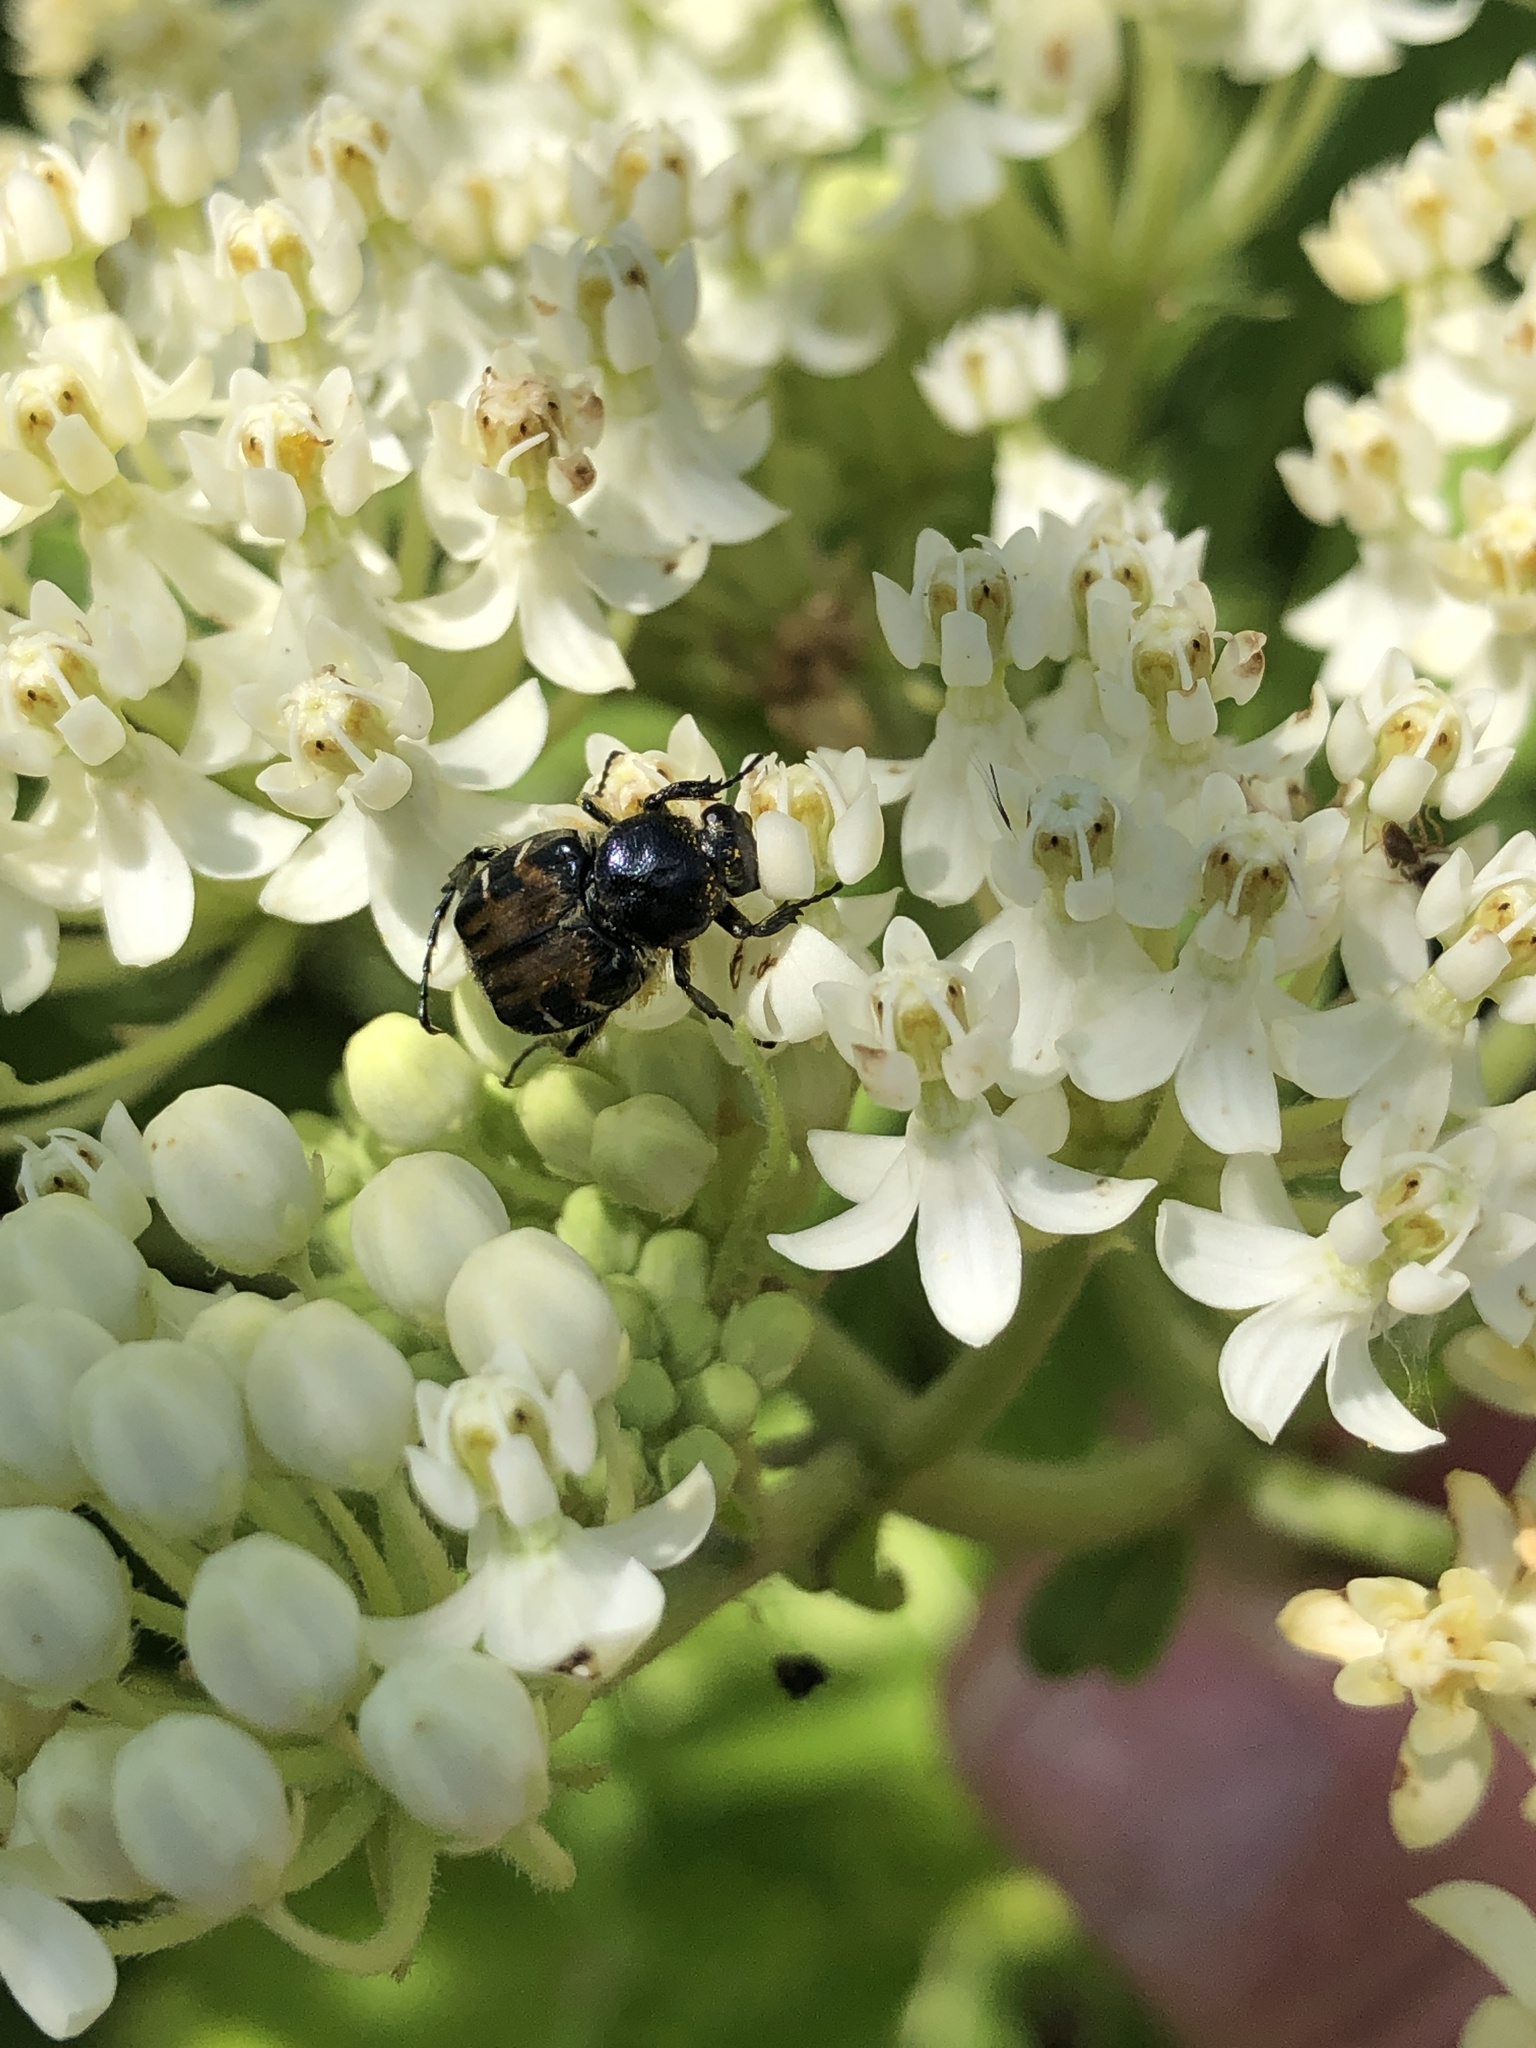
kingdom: Animalia
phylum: Arthropoda
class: Insecta
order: Coleoptera
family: Scarabaeidae
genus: Trichiotinus
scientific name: Trichiotinus affinis
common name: Hairy flower scarab
